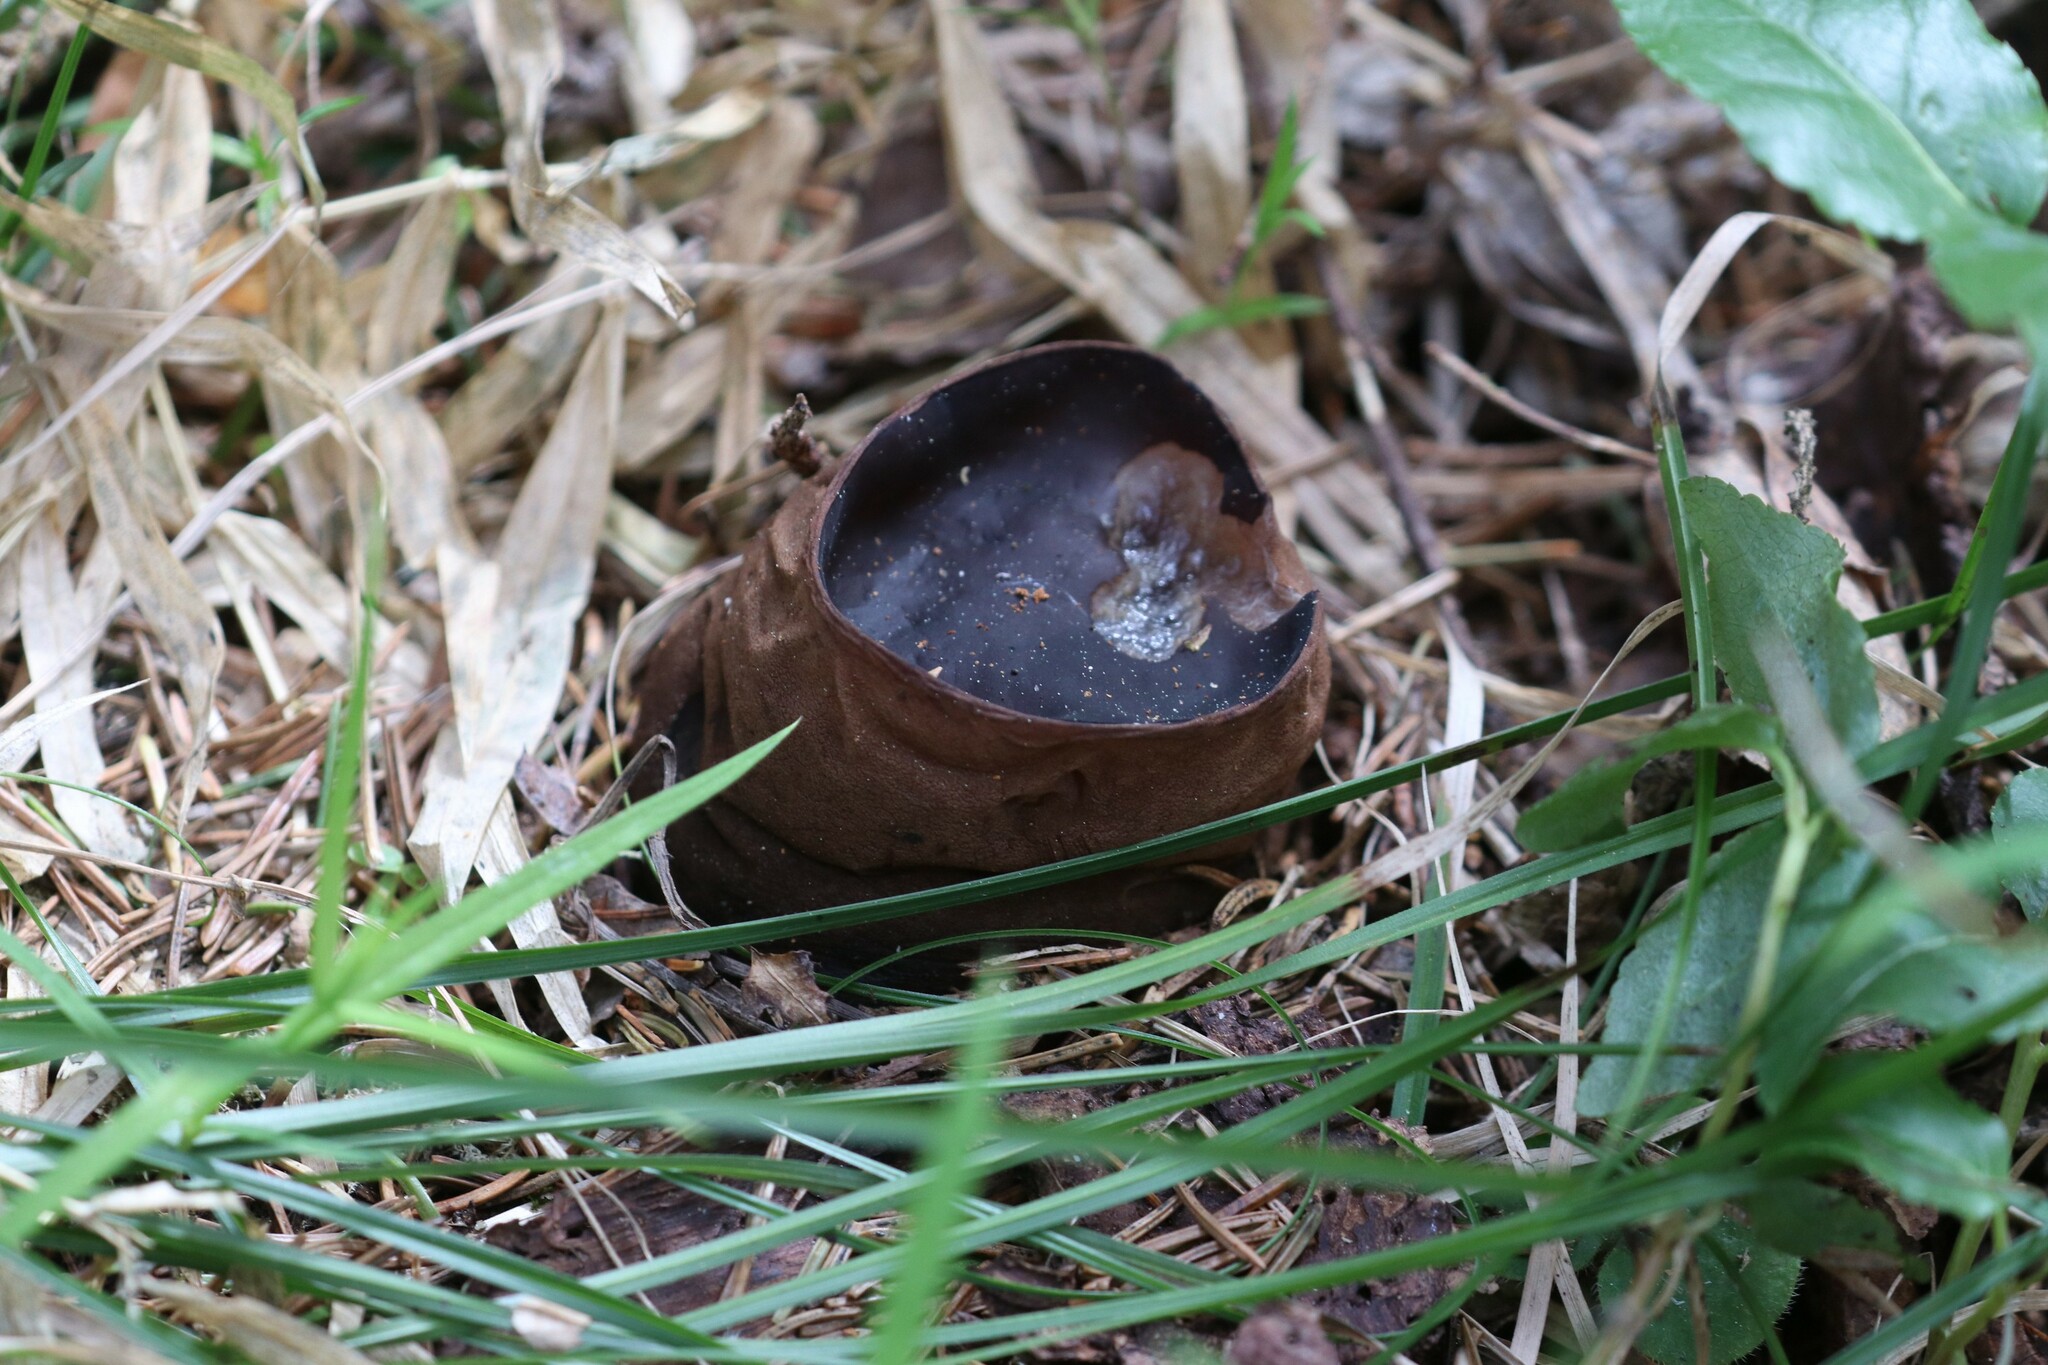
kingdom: Fungi
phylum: Ascomycota
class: Pezizomycetes
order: Pezizales
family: Sarcosomataceae
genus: Sarcosoma
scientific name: Sarcosoma globosum
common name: Charred-pancake cup
